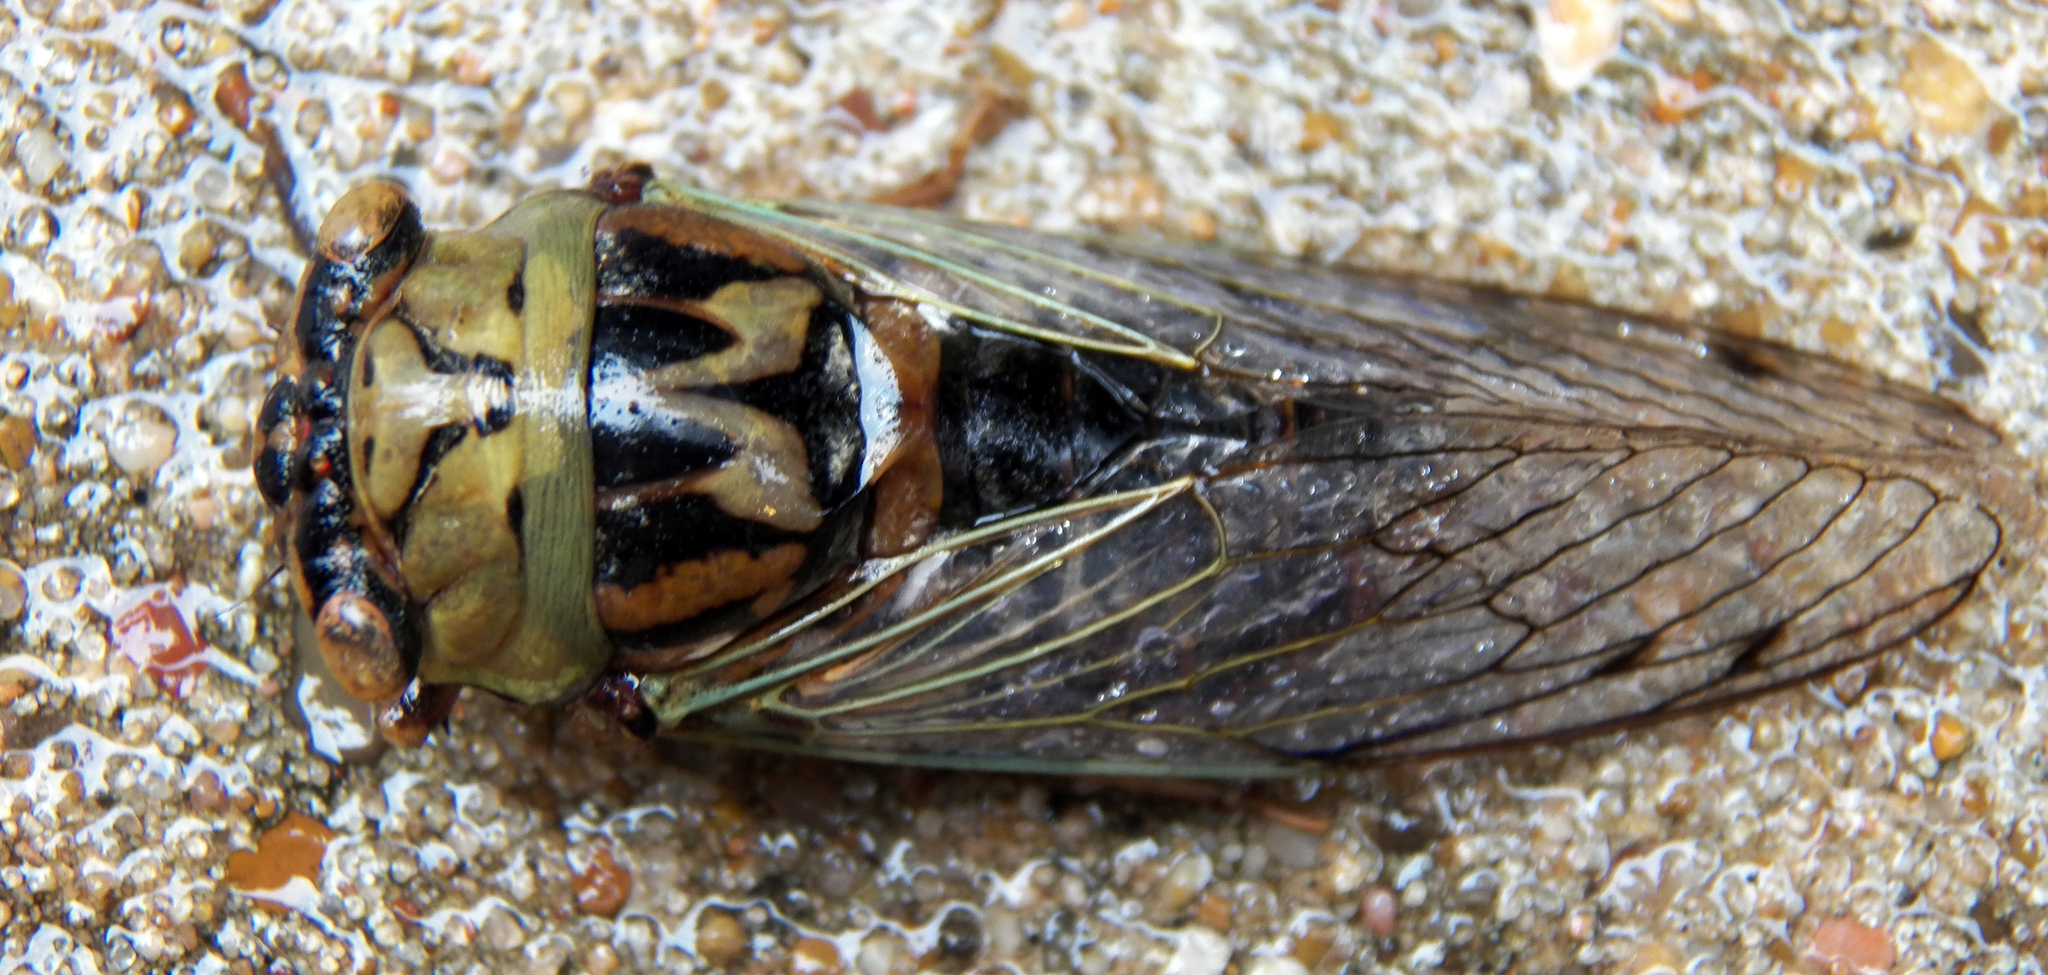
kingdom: Animalia
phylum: Arthropoda
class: Insecta
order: Hemiptera
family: Cicadidae
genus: Megatibicen
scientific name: Megatibicen resh
